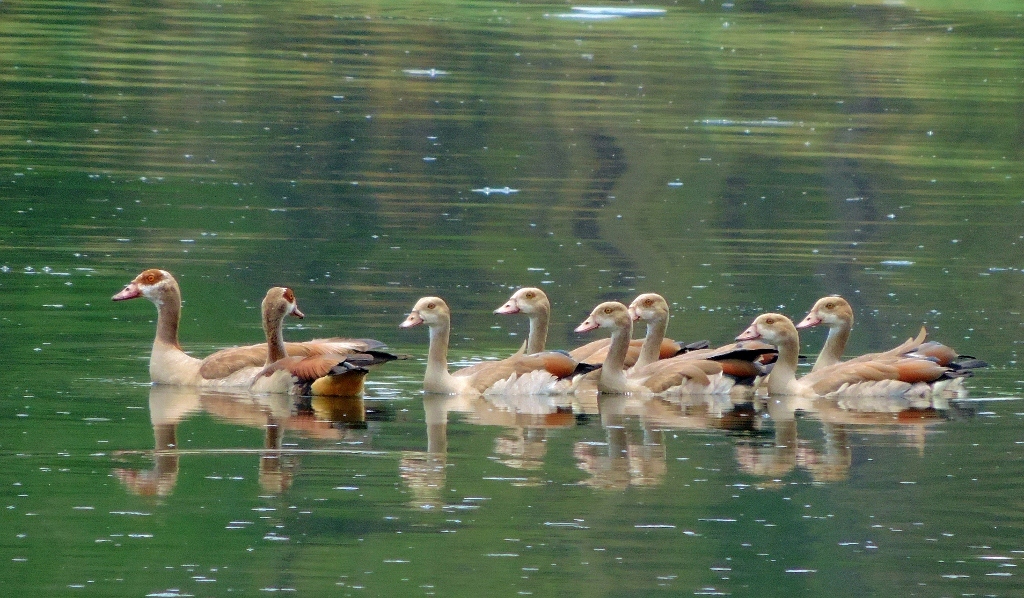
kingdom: Animalia
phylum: Chordata
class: Aves
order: Anseriformes
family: Anatidae
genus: Alopochen
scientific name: Alopochen aegyptiaca
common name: Egyptian goose
